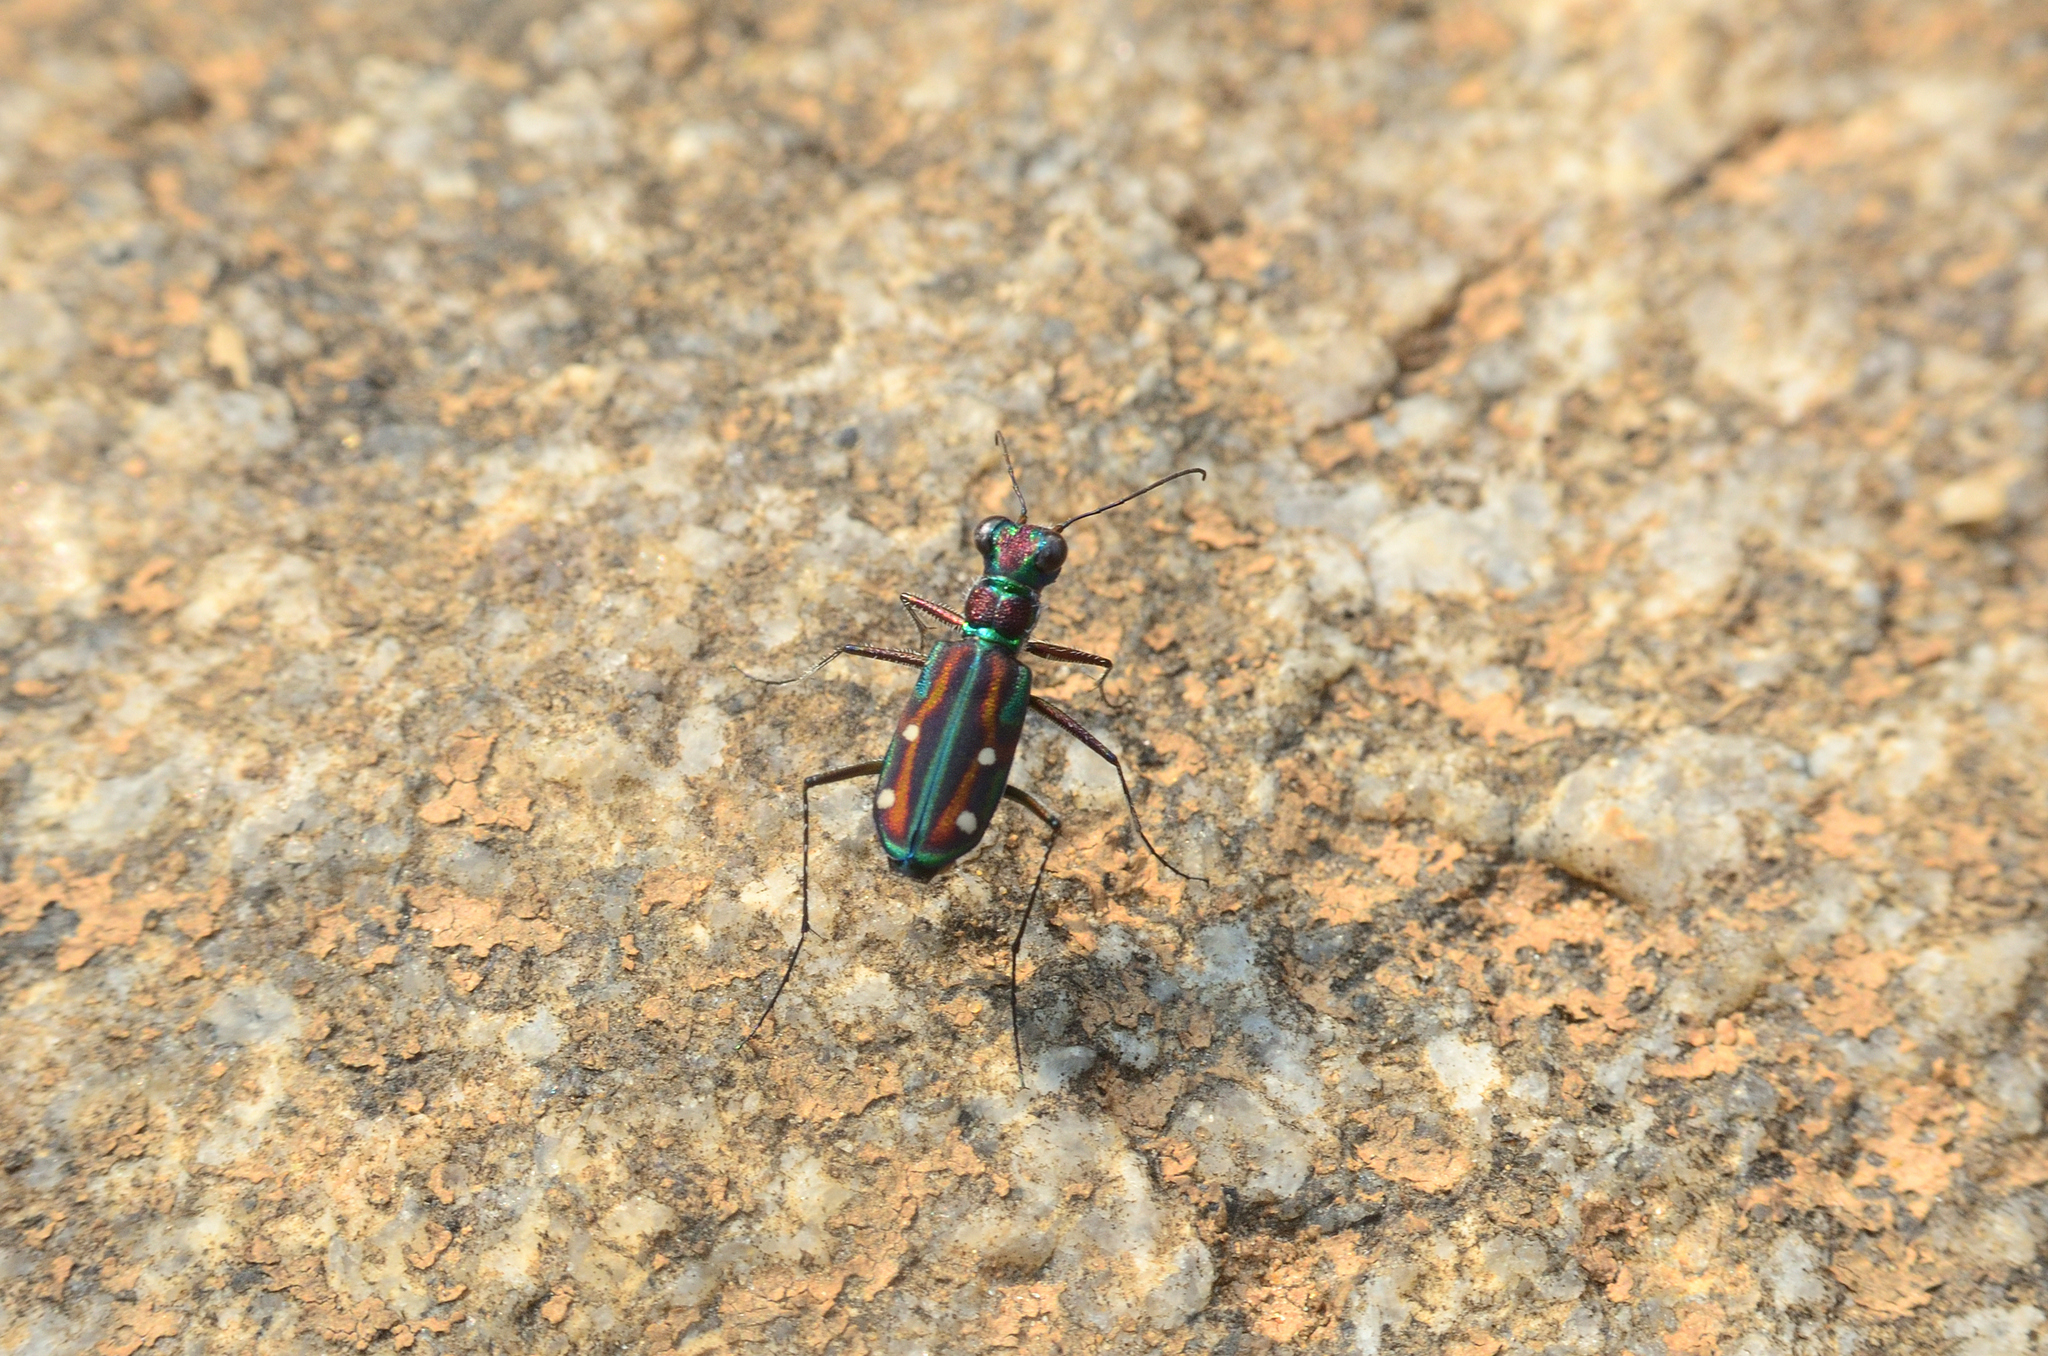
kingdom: Animalia
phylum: Arthropoda
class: Insecta
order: Coleoptera
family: Carabidae
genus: Jansenia
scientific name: Jansenia rugosiceps
